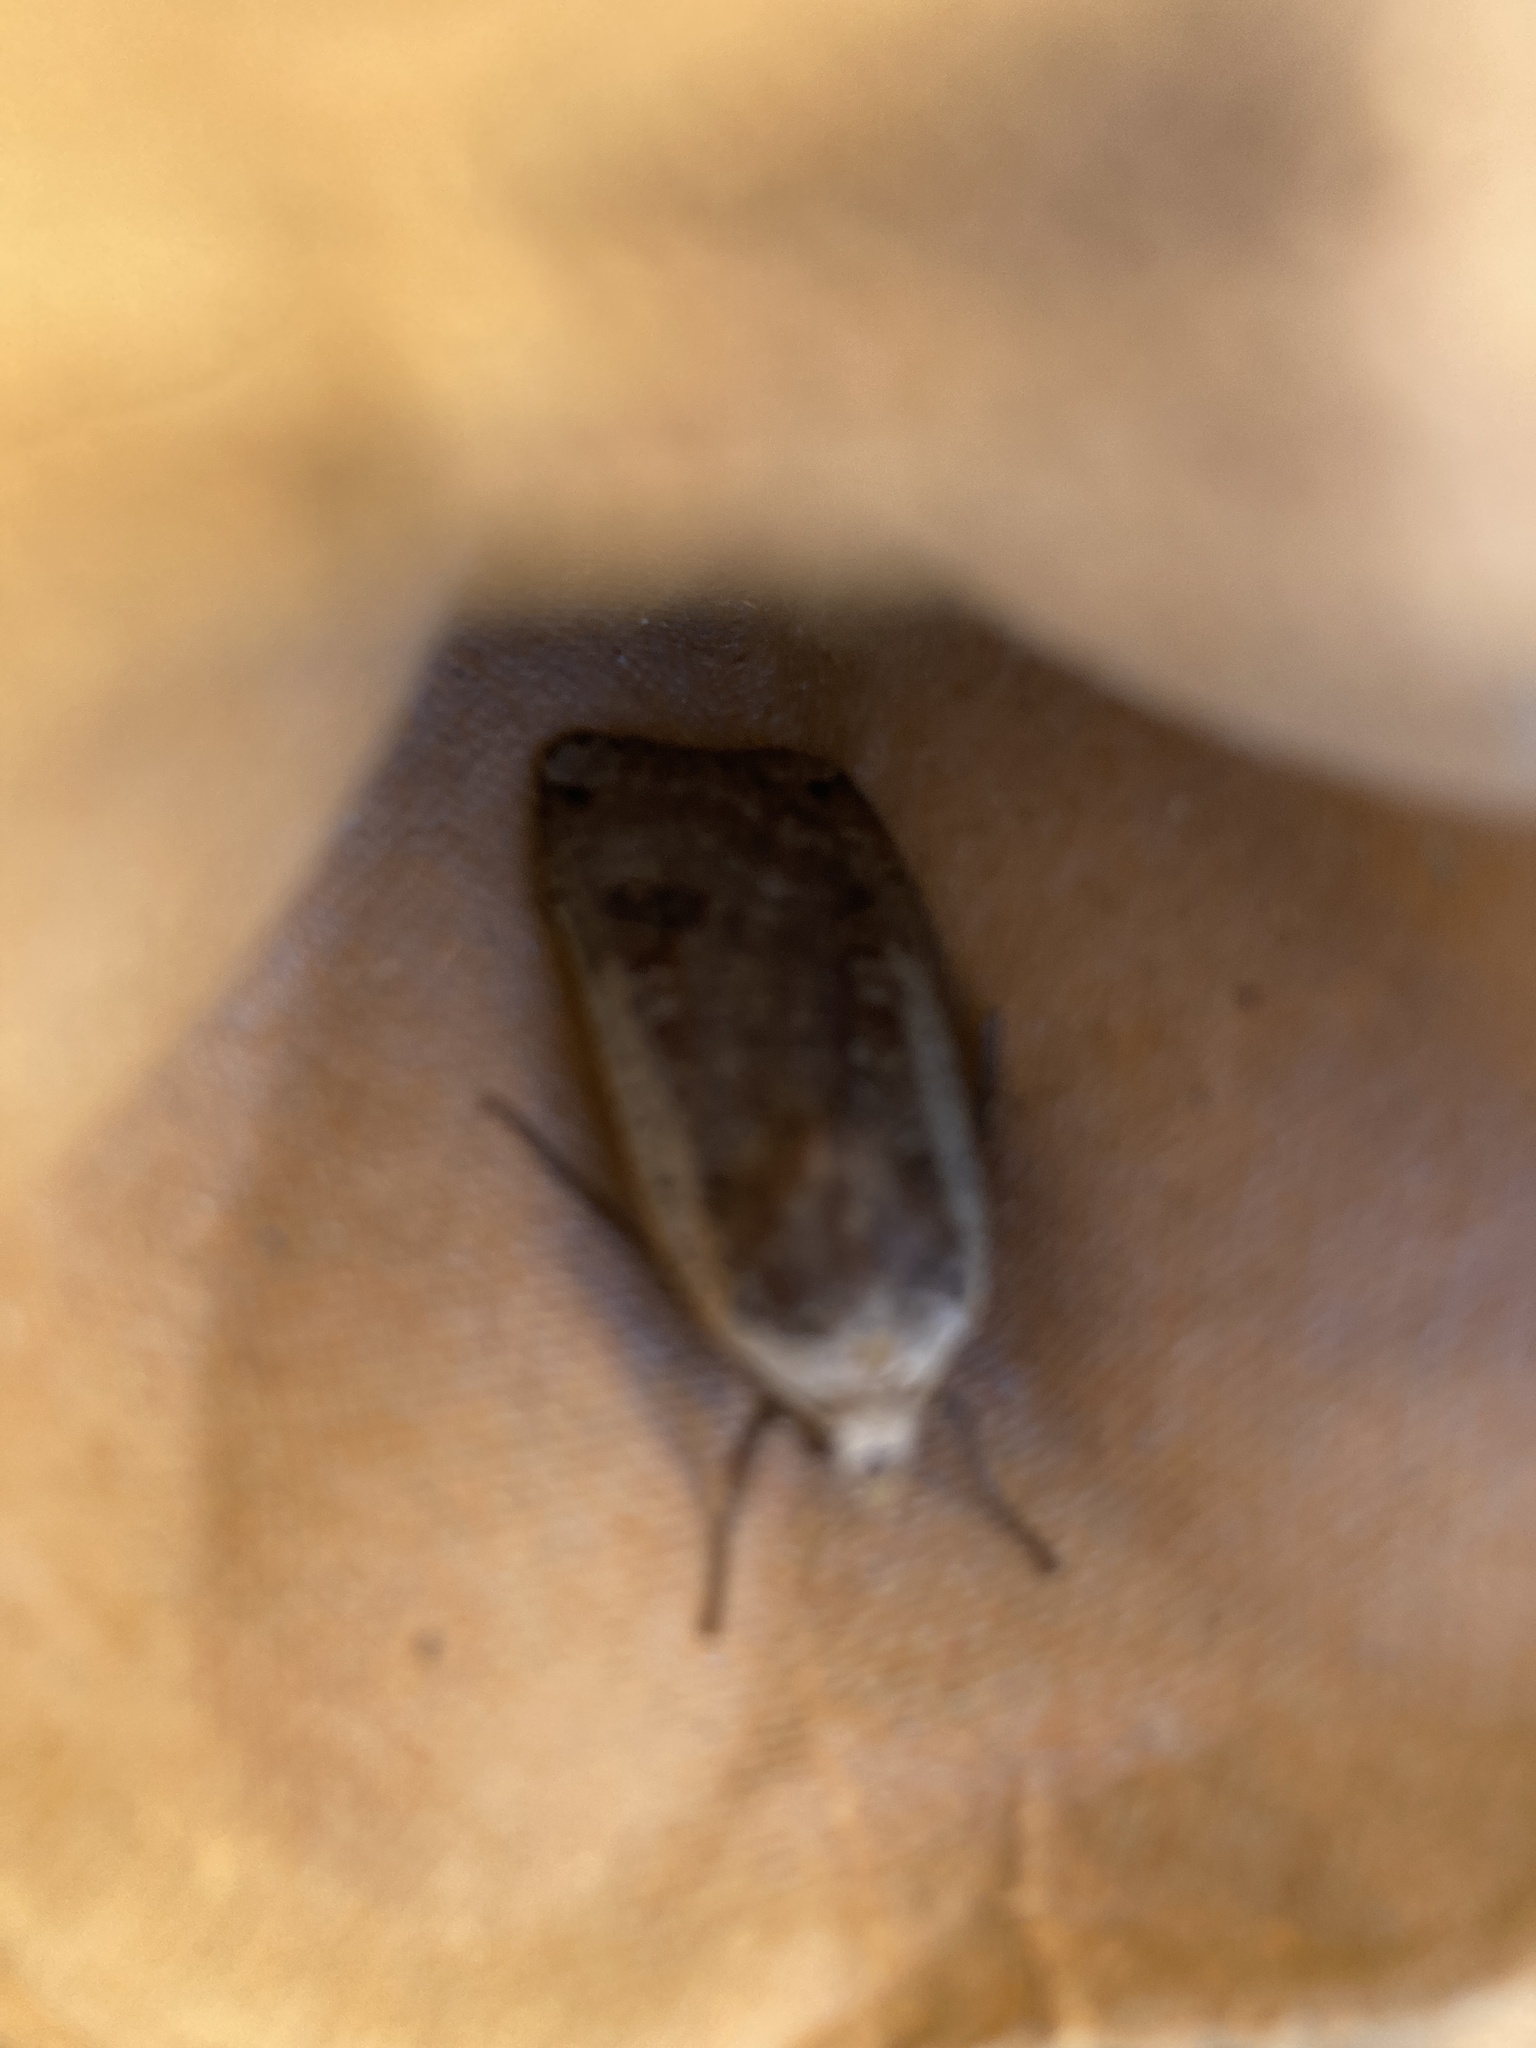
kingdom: Animalia
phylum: Arthropoda
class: Insecta
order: Lepidoptera
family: Noctuidae
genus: Noctua
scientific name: Noctua pronuba
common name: Large yellow underwing
